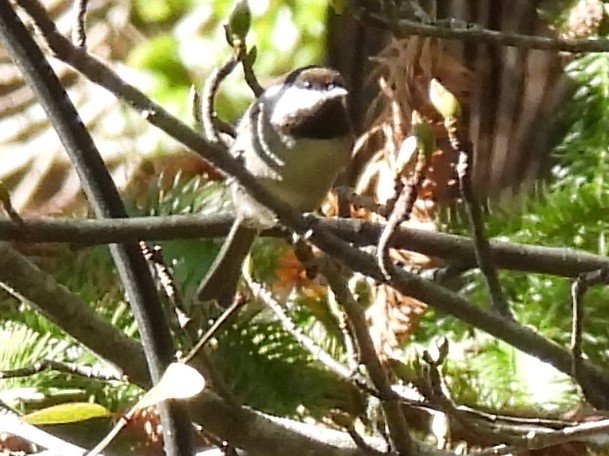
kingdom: Animalia
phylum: Chordata
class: Aves
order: Passeriformes
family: Paridae
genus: Poecile
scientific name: Poecile rufescens
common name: Chestnut-backed chickadee
